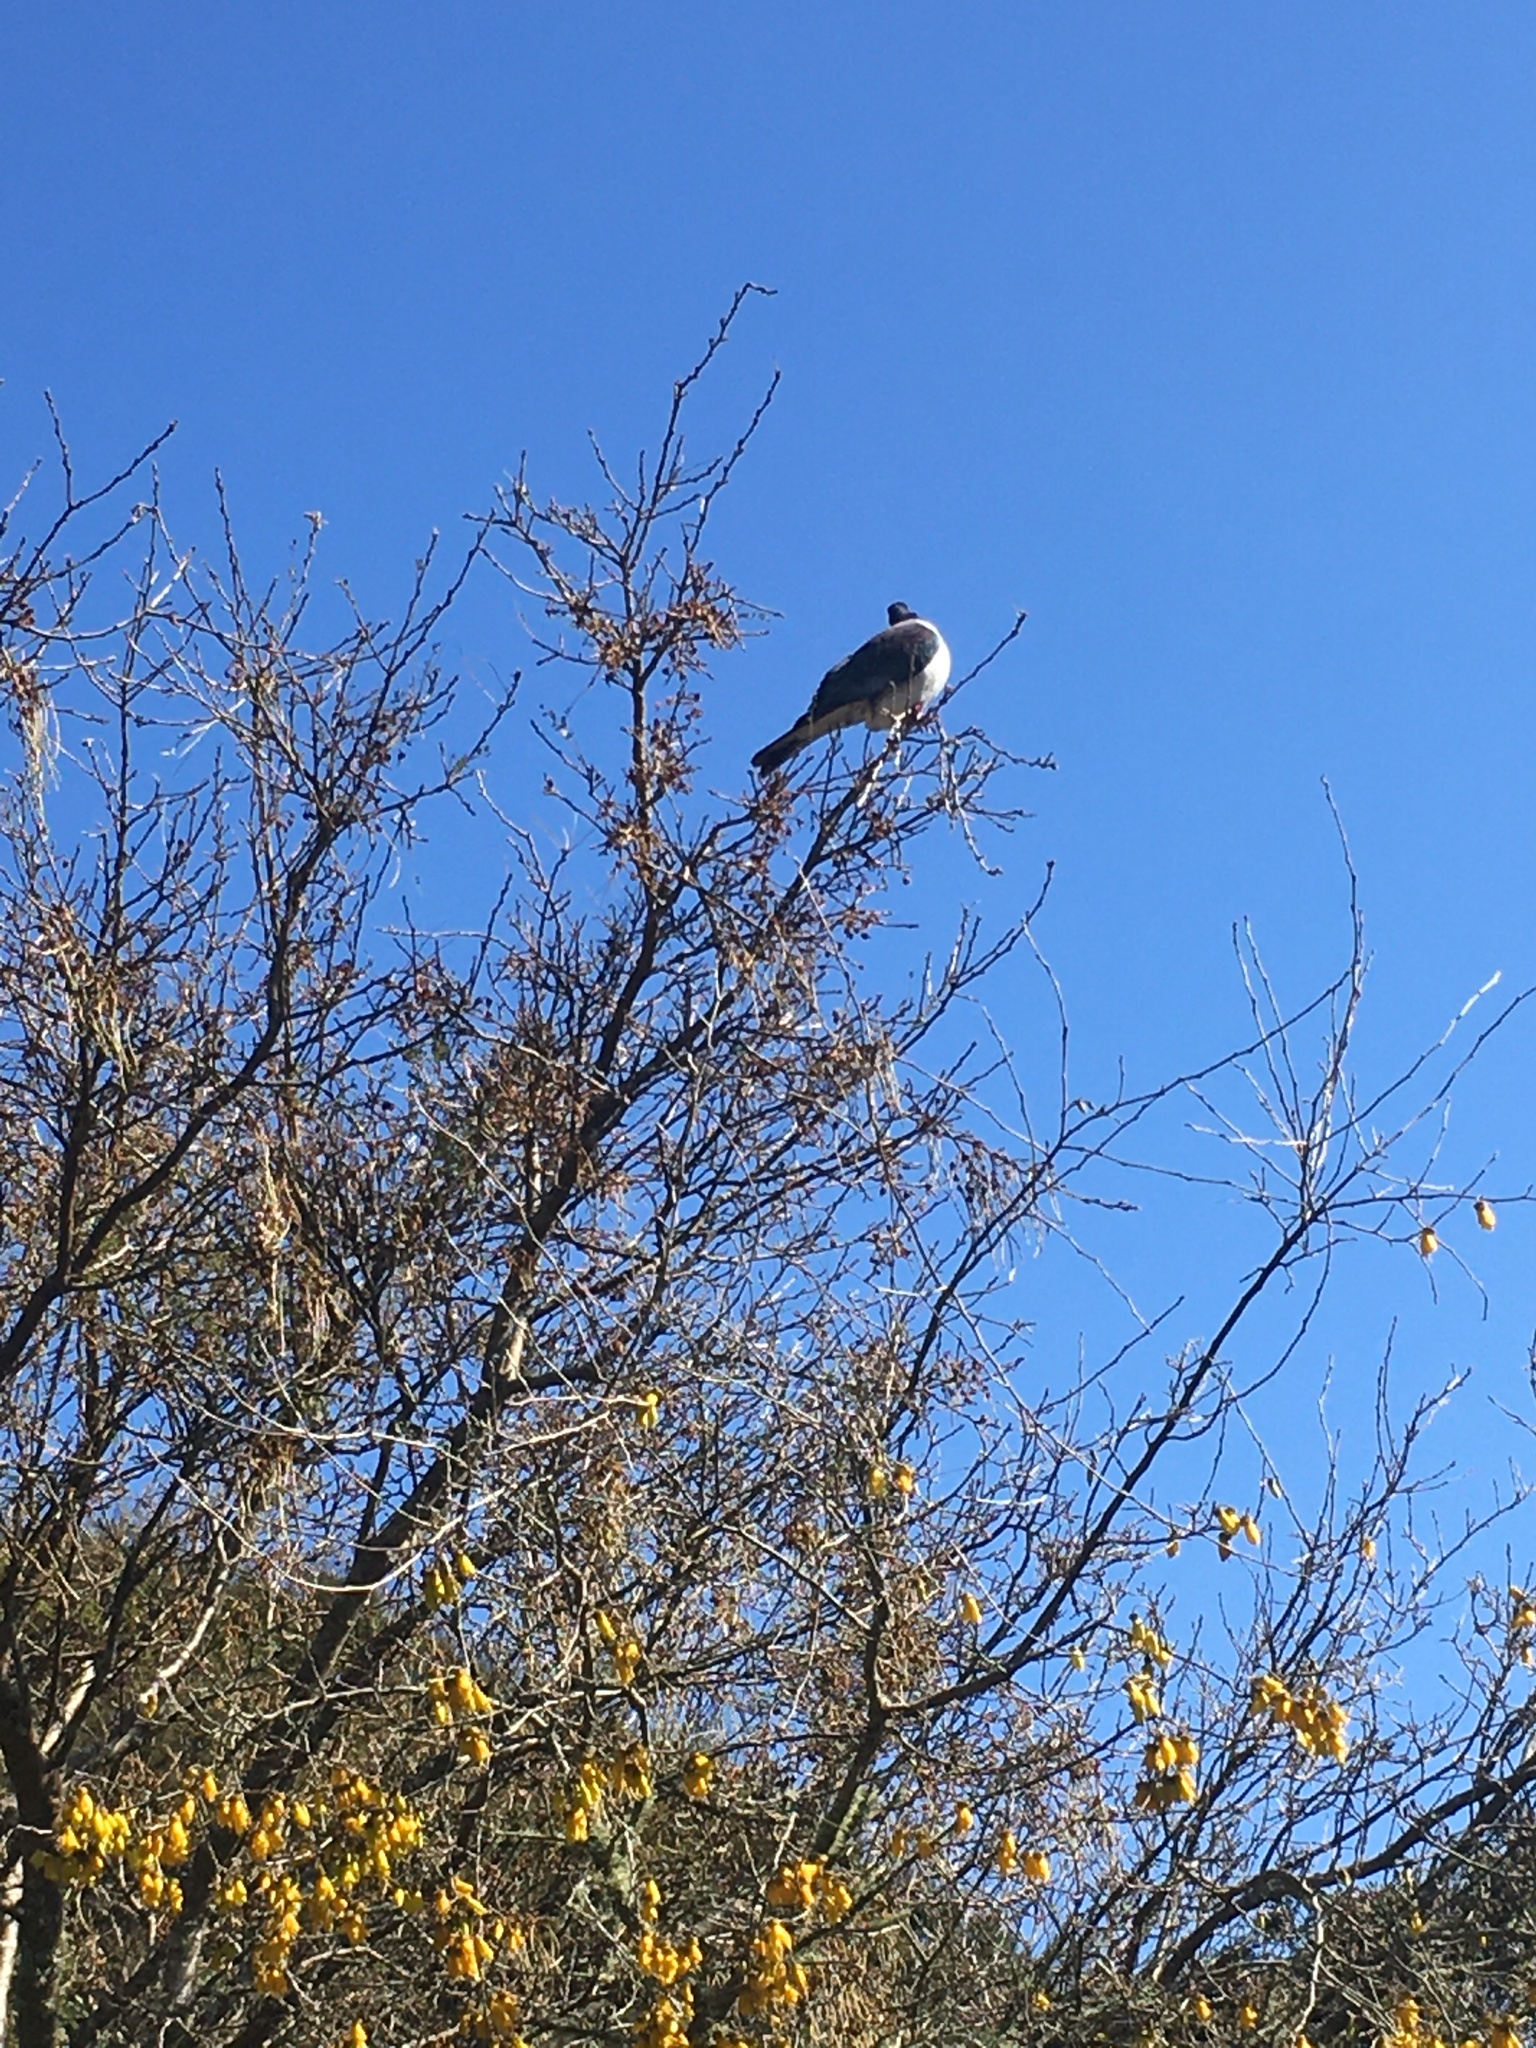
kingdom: Animalia
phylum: Chordata
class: Aves
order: Columbiformes
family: Columbidae
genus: Hemiphaga
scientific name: Hemiphaga novaeseelandiae
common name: New zealand pigeon
